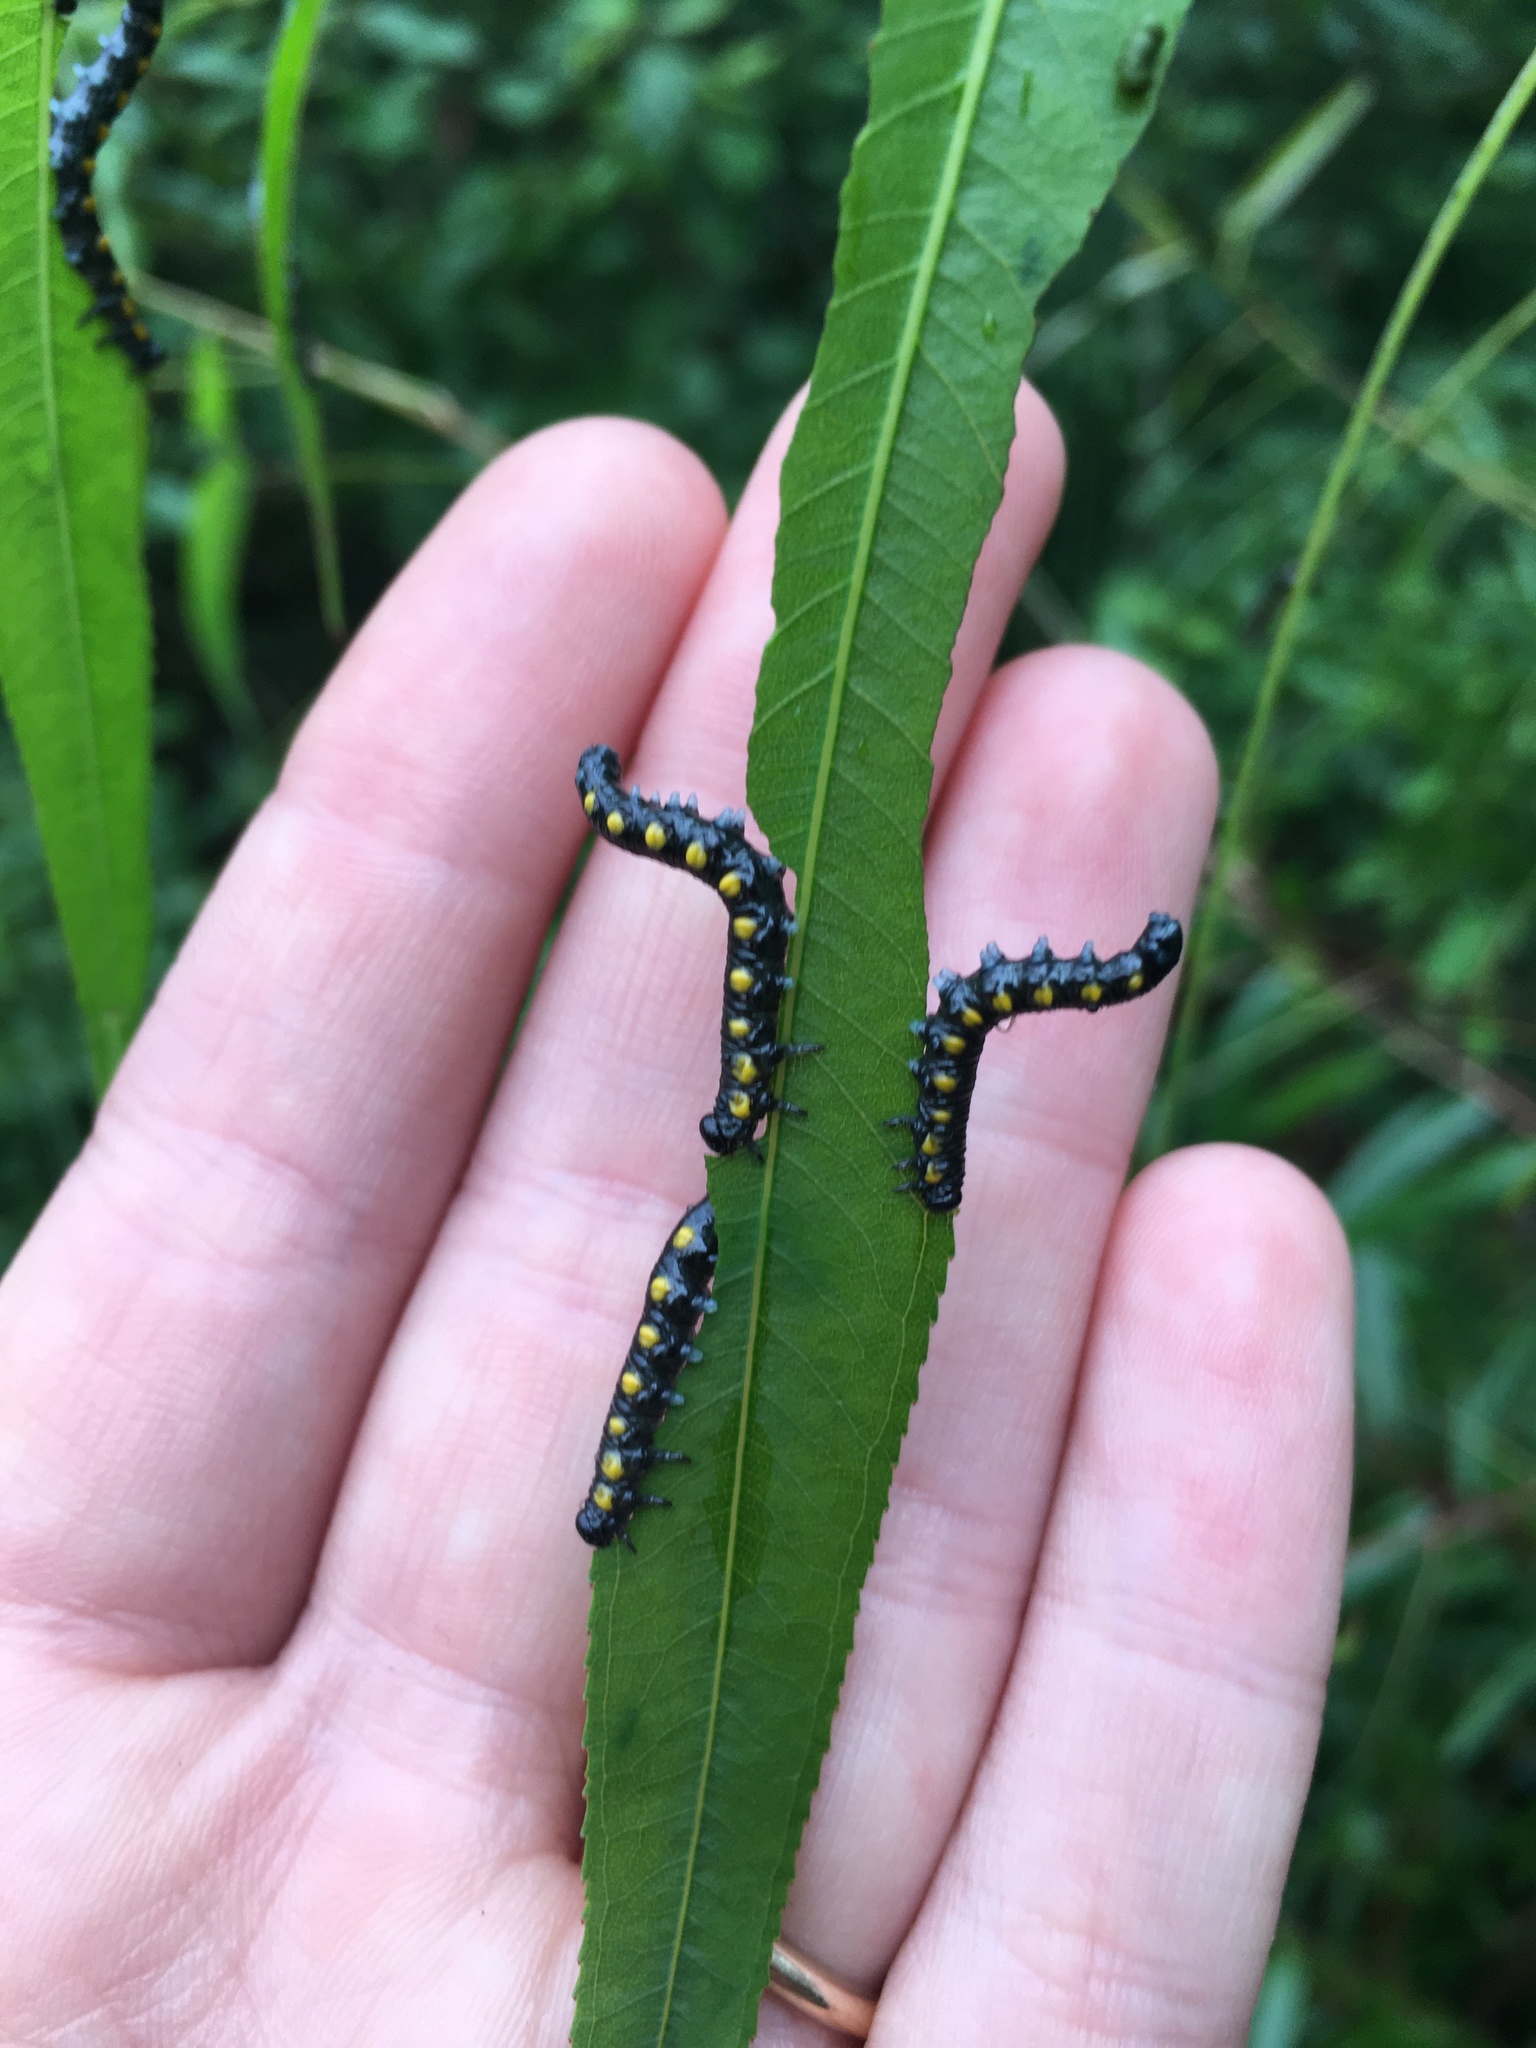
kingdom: Animalia
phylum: Arthropoda
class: Insecta
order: Hymenoptera
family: Tenthredinidae
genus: Euura
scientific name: Euura ventralis
